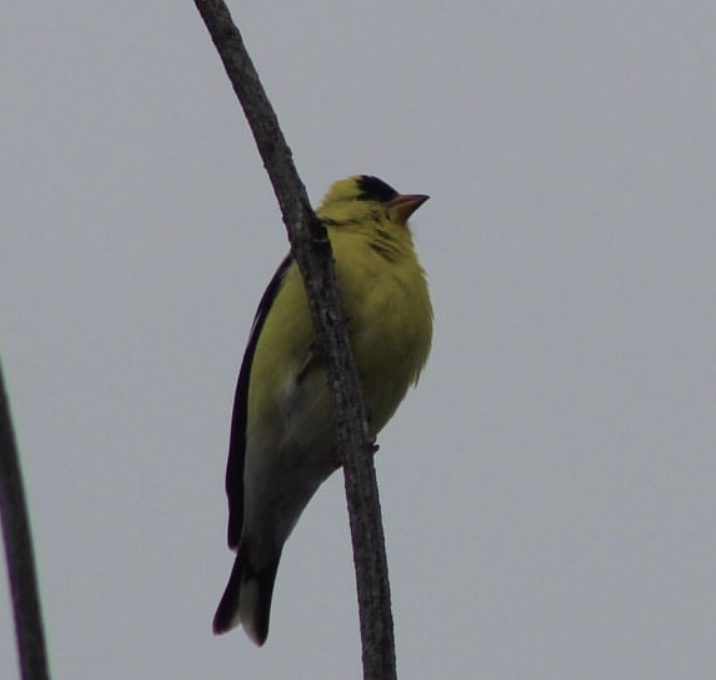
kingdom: Animalia
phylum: Chordata
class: Aves
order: Passeriformes
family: Fringillidae
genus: Spinus
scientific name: Spinus tristis
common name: American goldfinch
